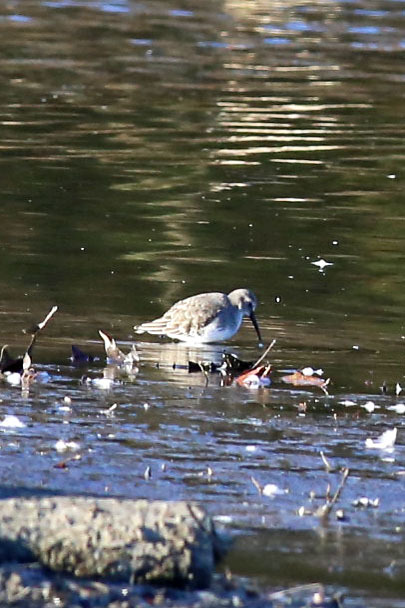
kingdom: Animalia
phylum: Chordata
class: Aves
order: Charadriiformes
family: Scolopacidae
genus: Calidris
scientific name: Calidris alpina
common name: Dunlin
